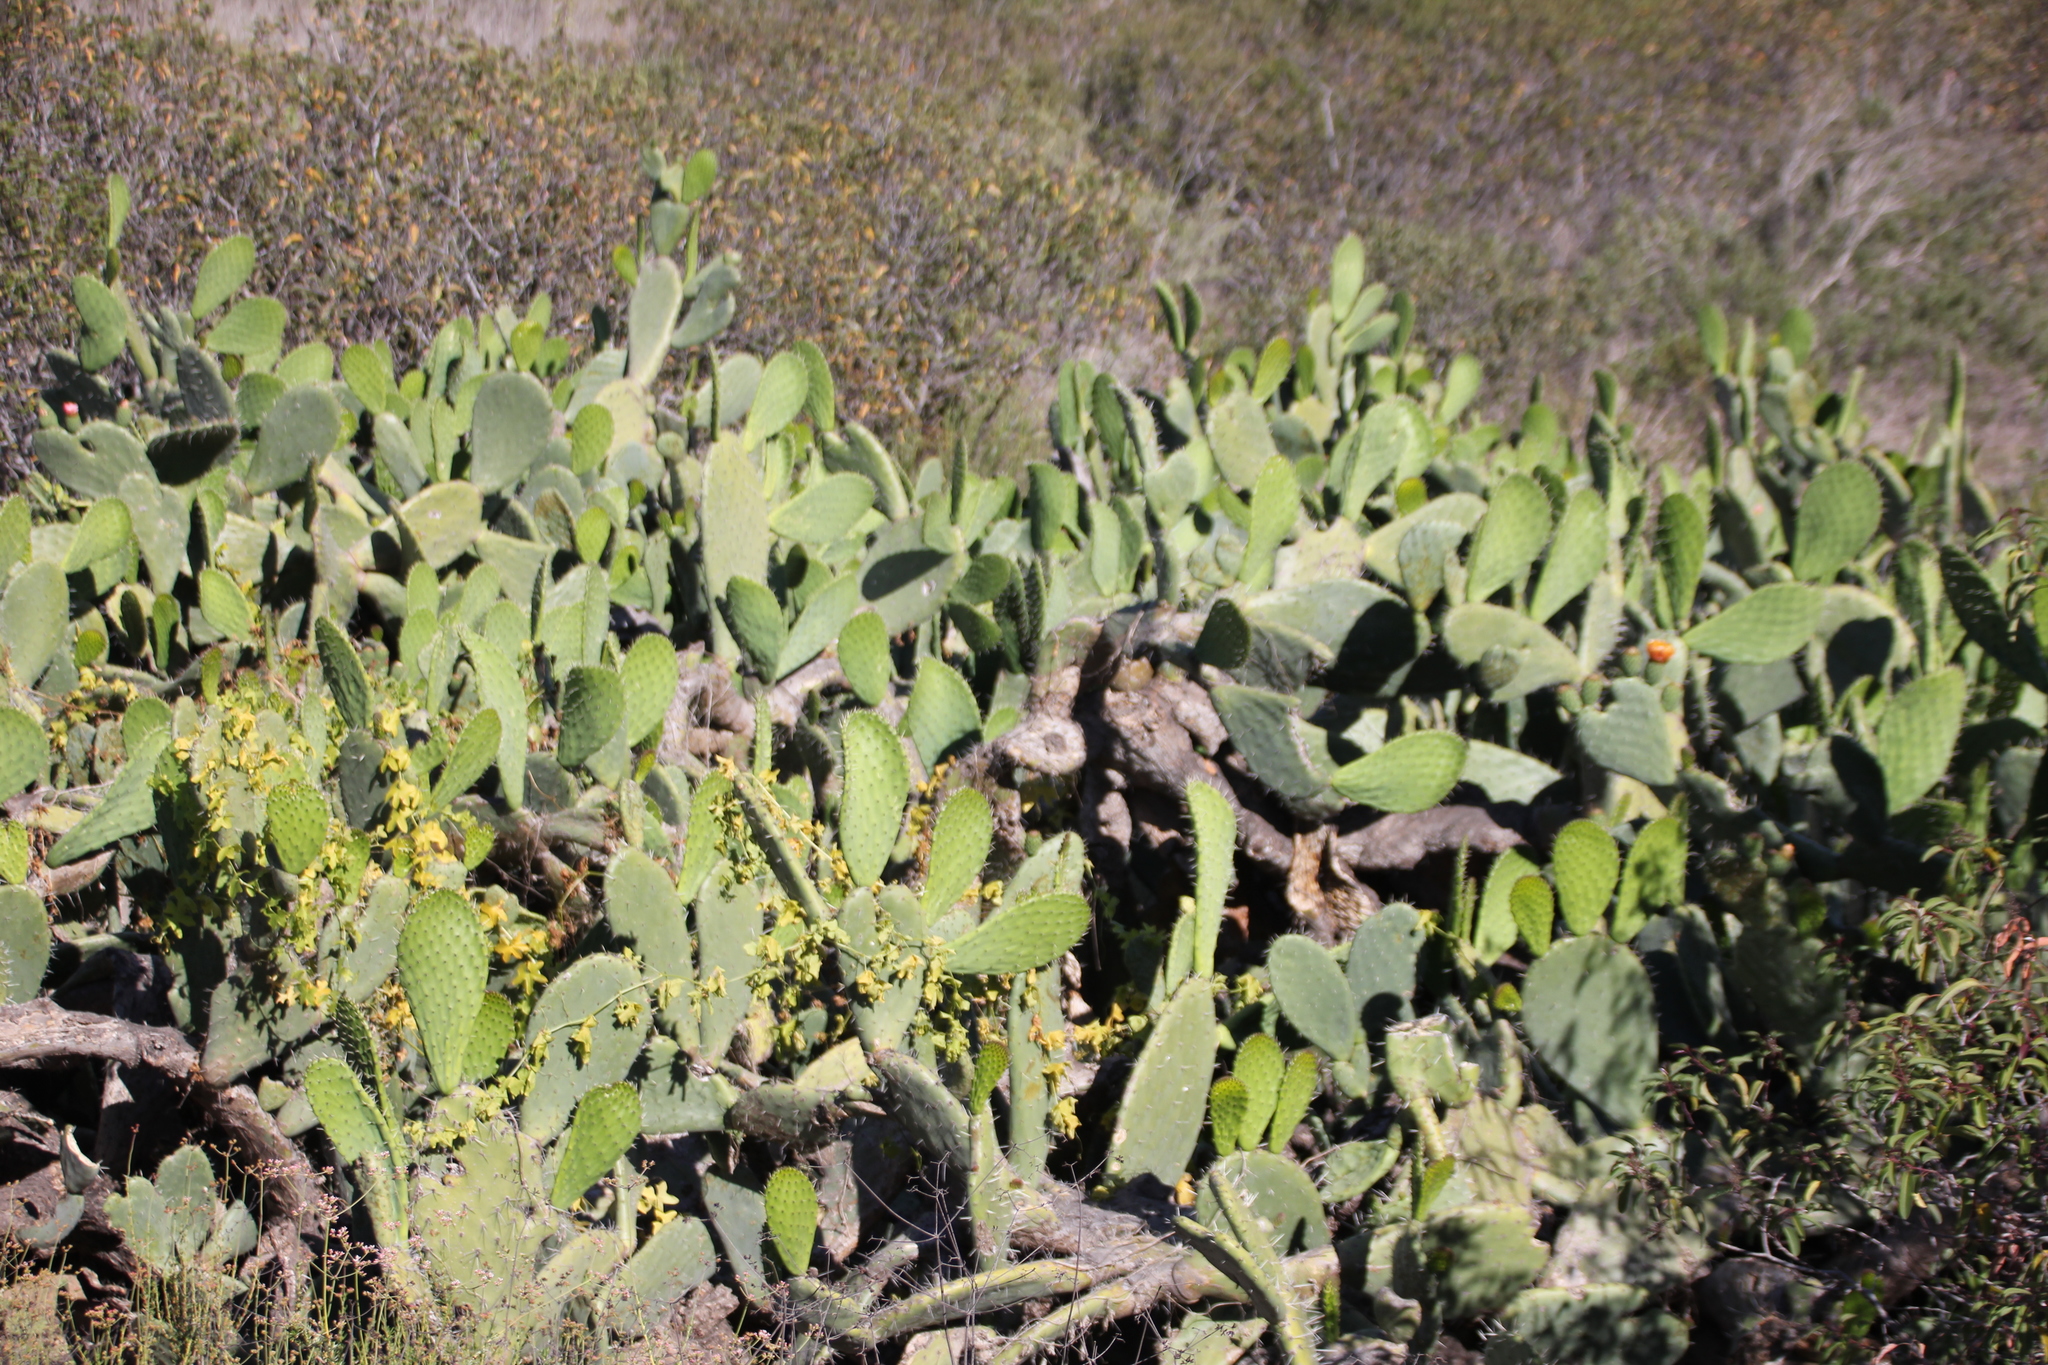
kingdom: Plantae
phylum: Tracheophyta
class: Magnoliopsida
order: Caryophyllales
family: Cactaceae
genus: Opuntia
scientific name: Opuntia ficus-indica
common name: Barbary fig
